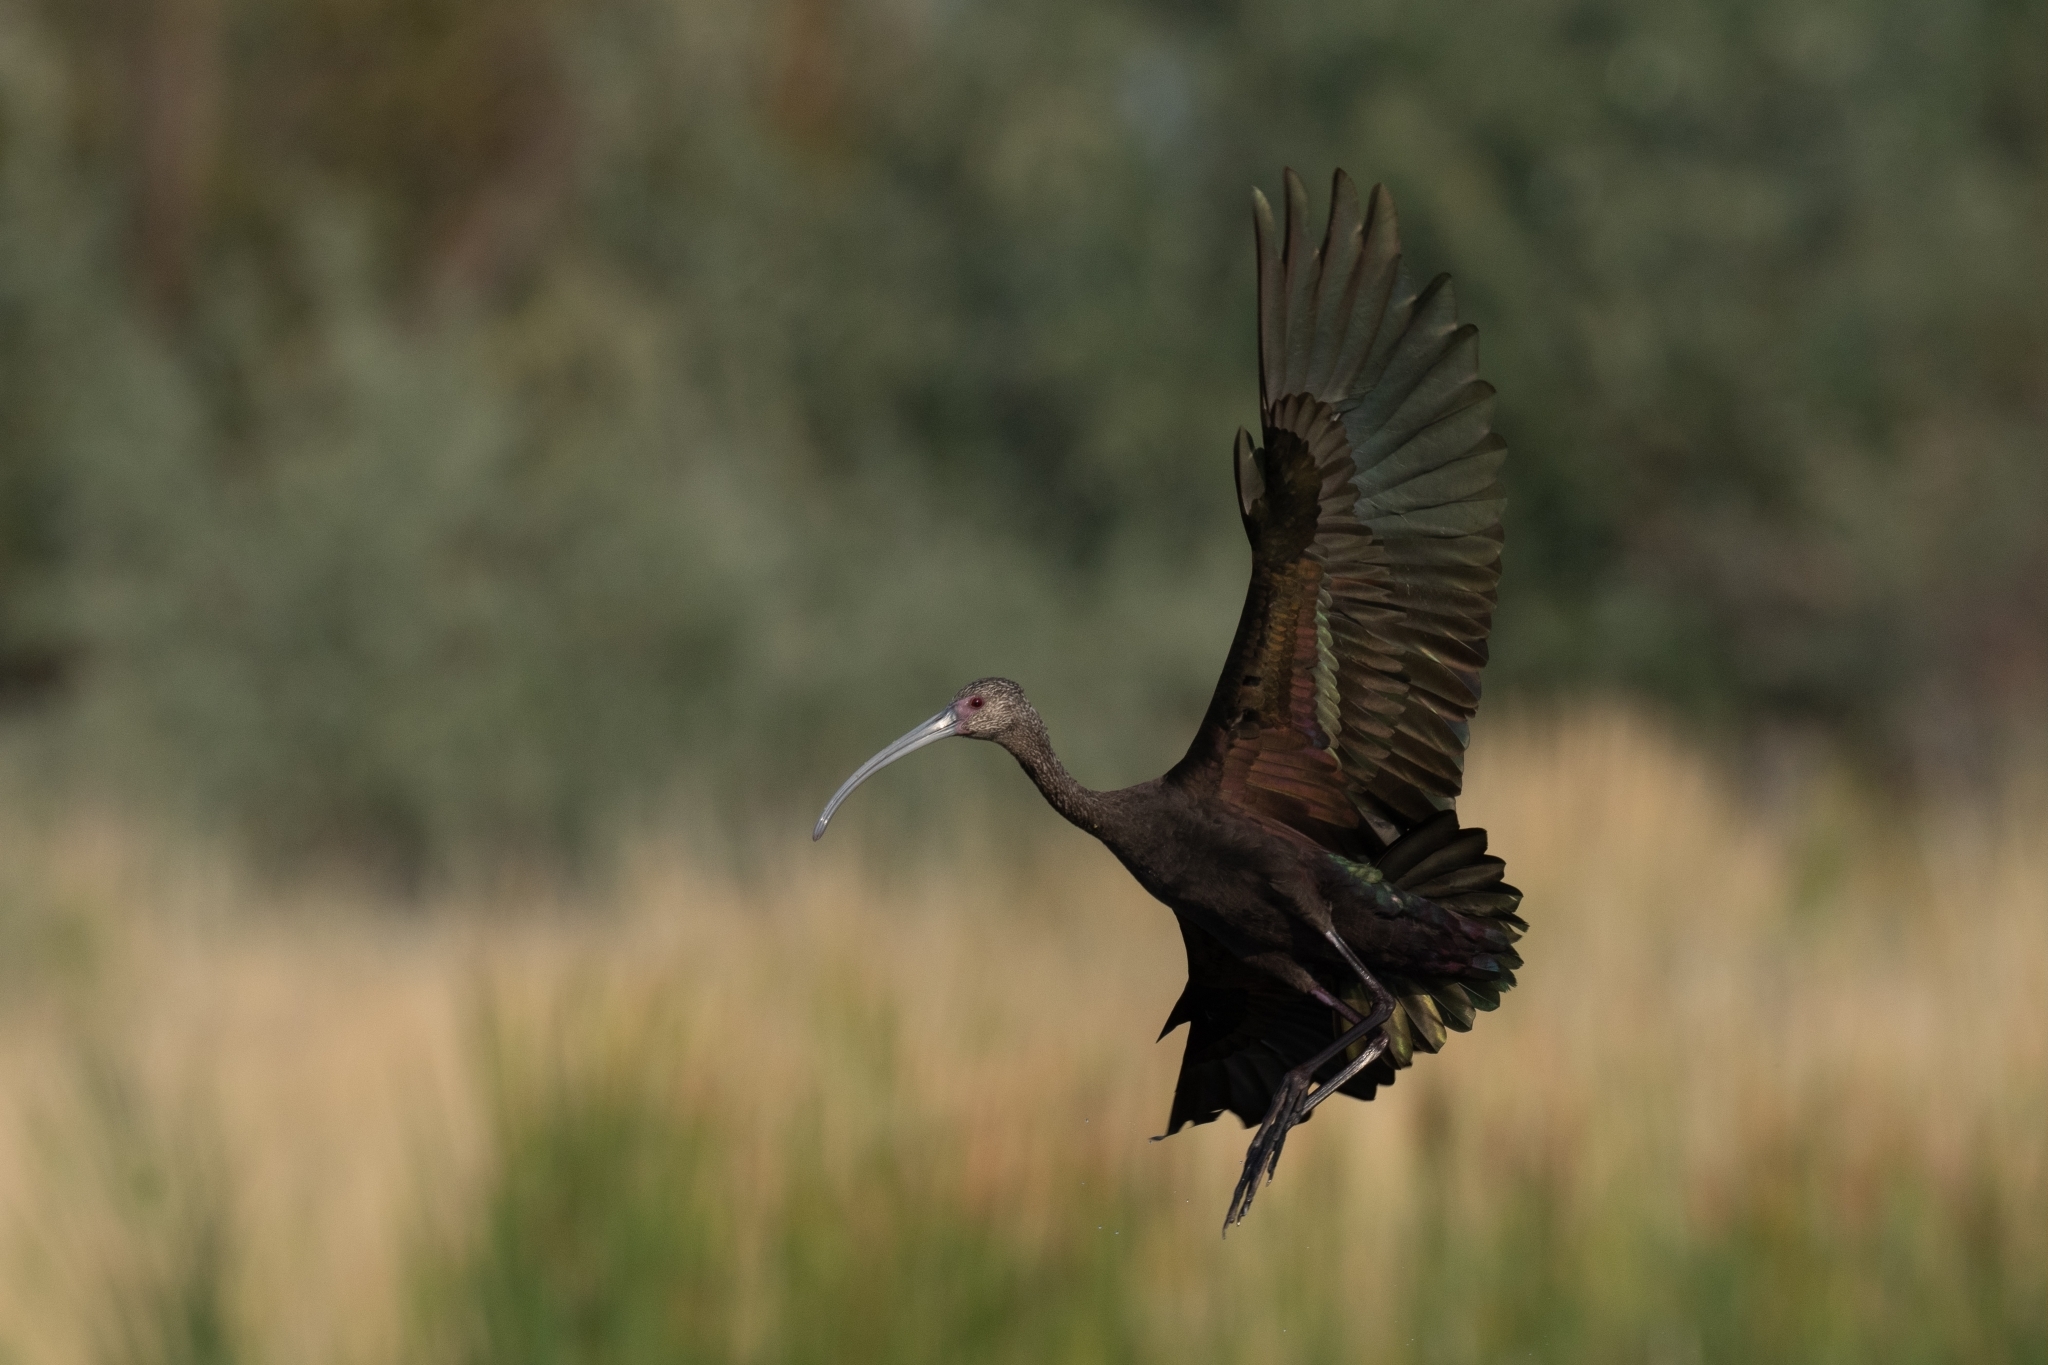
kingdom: Animalia
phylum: Chordata
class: Aves
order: Pelecaniformes
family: Threskiornithidae
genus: Plegadis
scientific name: Plegadis chihi
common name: White-faced ibis
